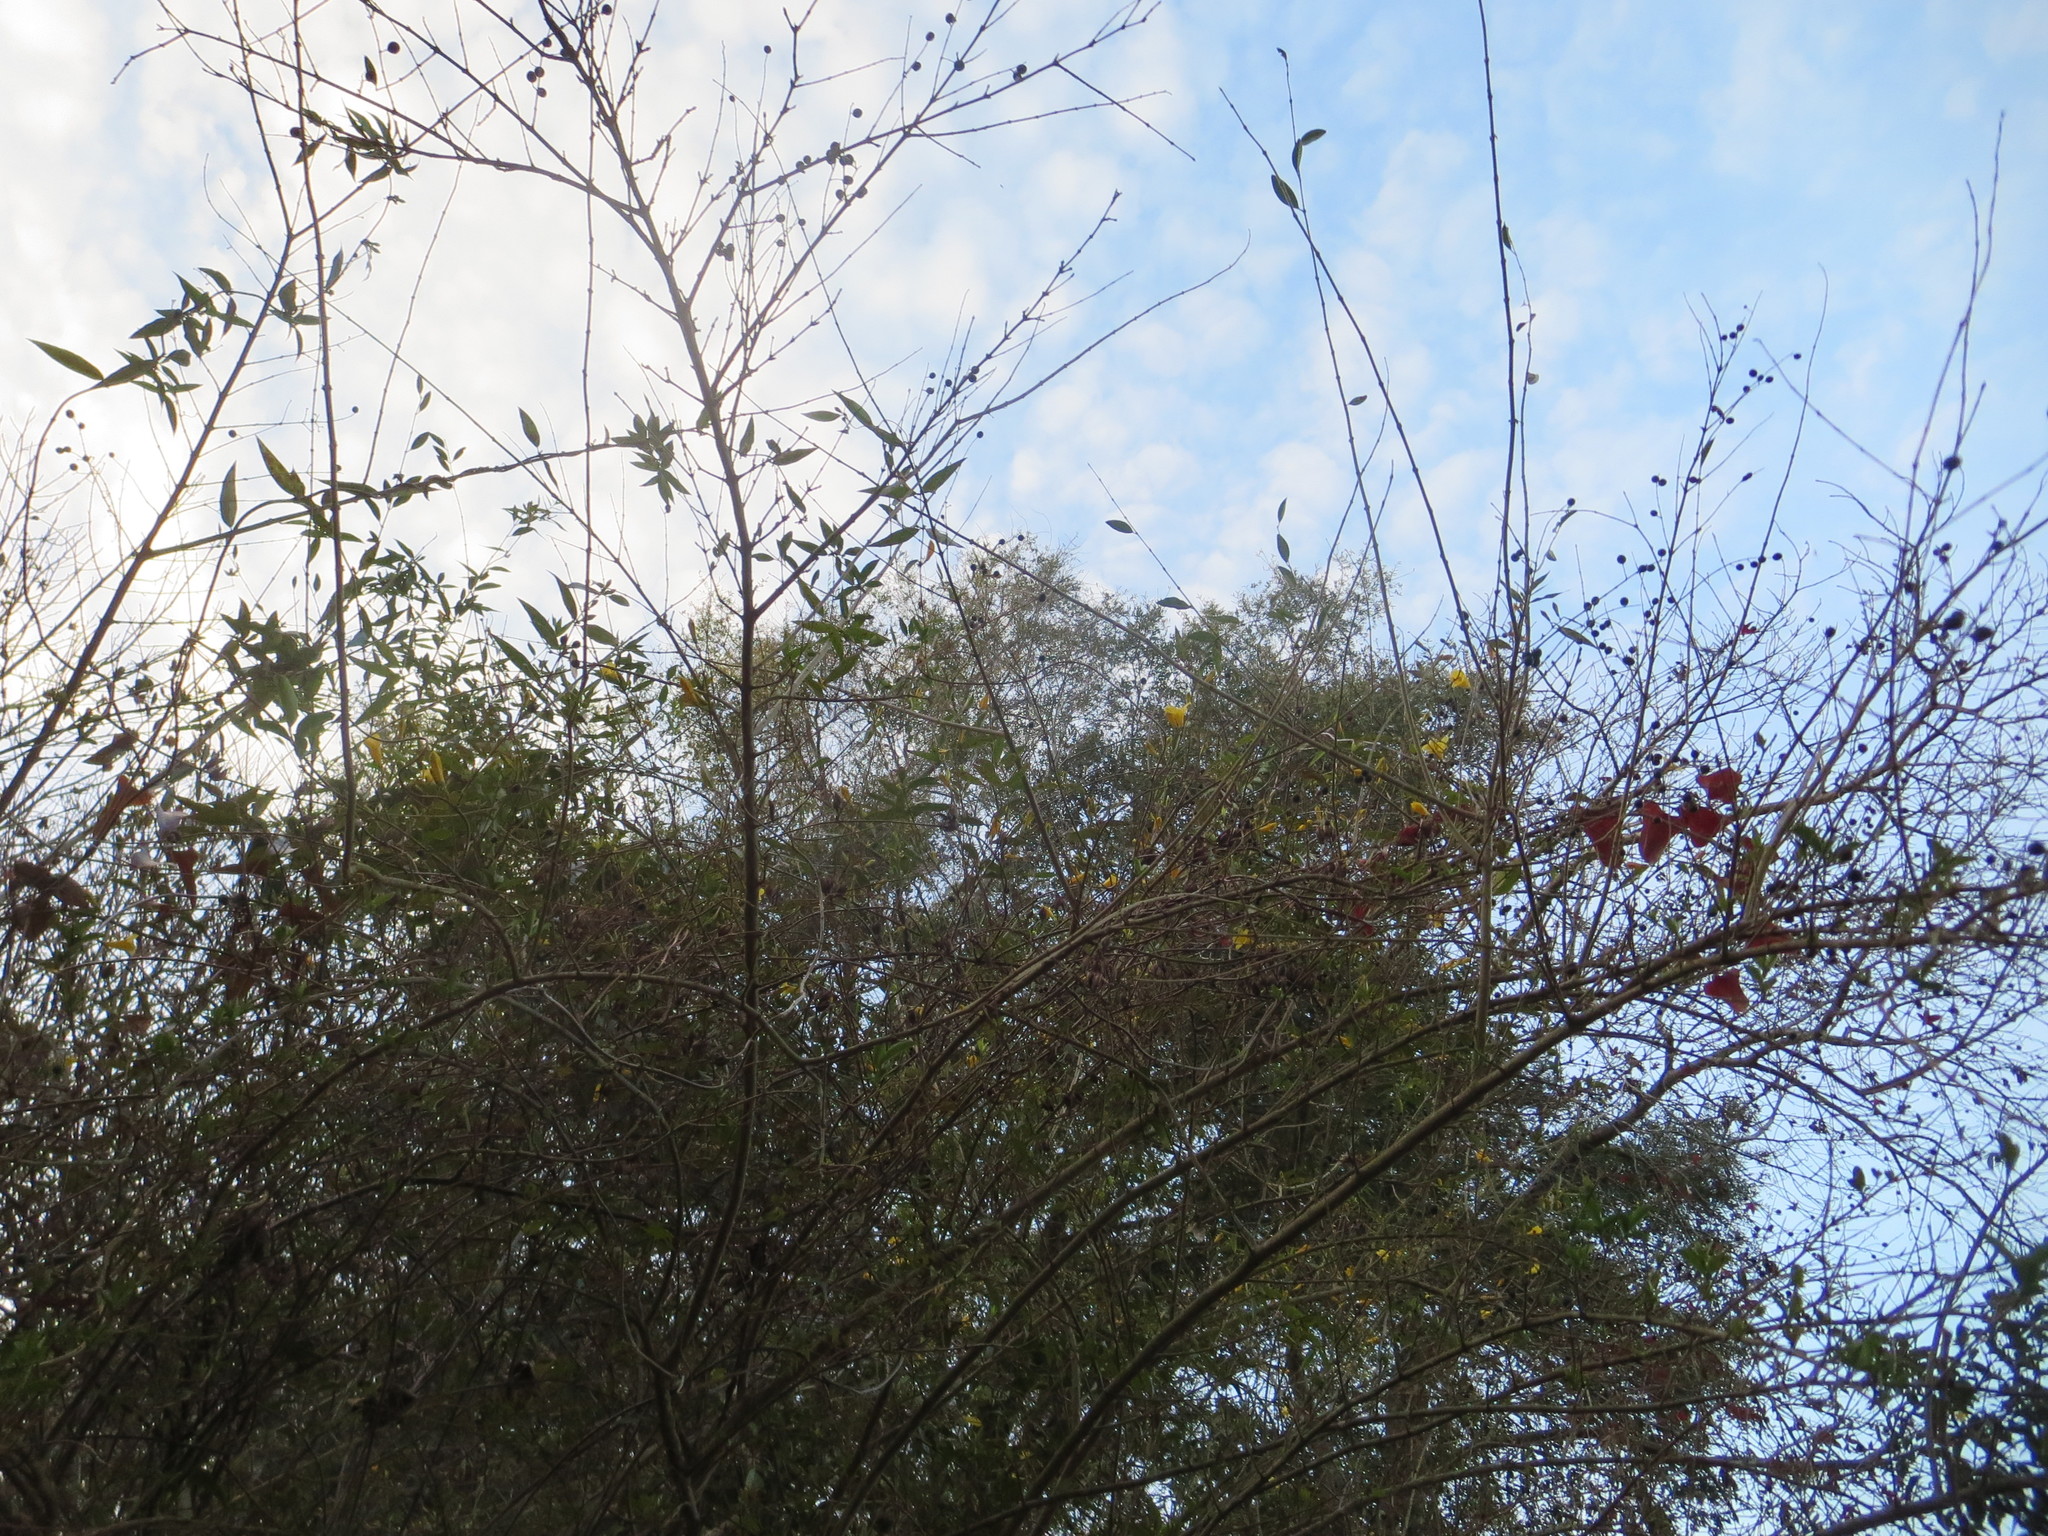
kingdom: Plantae
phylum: Tracheophyta
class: Magnoliopsida
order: Gentianales
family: Gelsemiaceae
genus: Gelsemium
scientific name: Gelsemium sempervirens
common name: Carolina-jasmine
